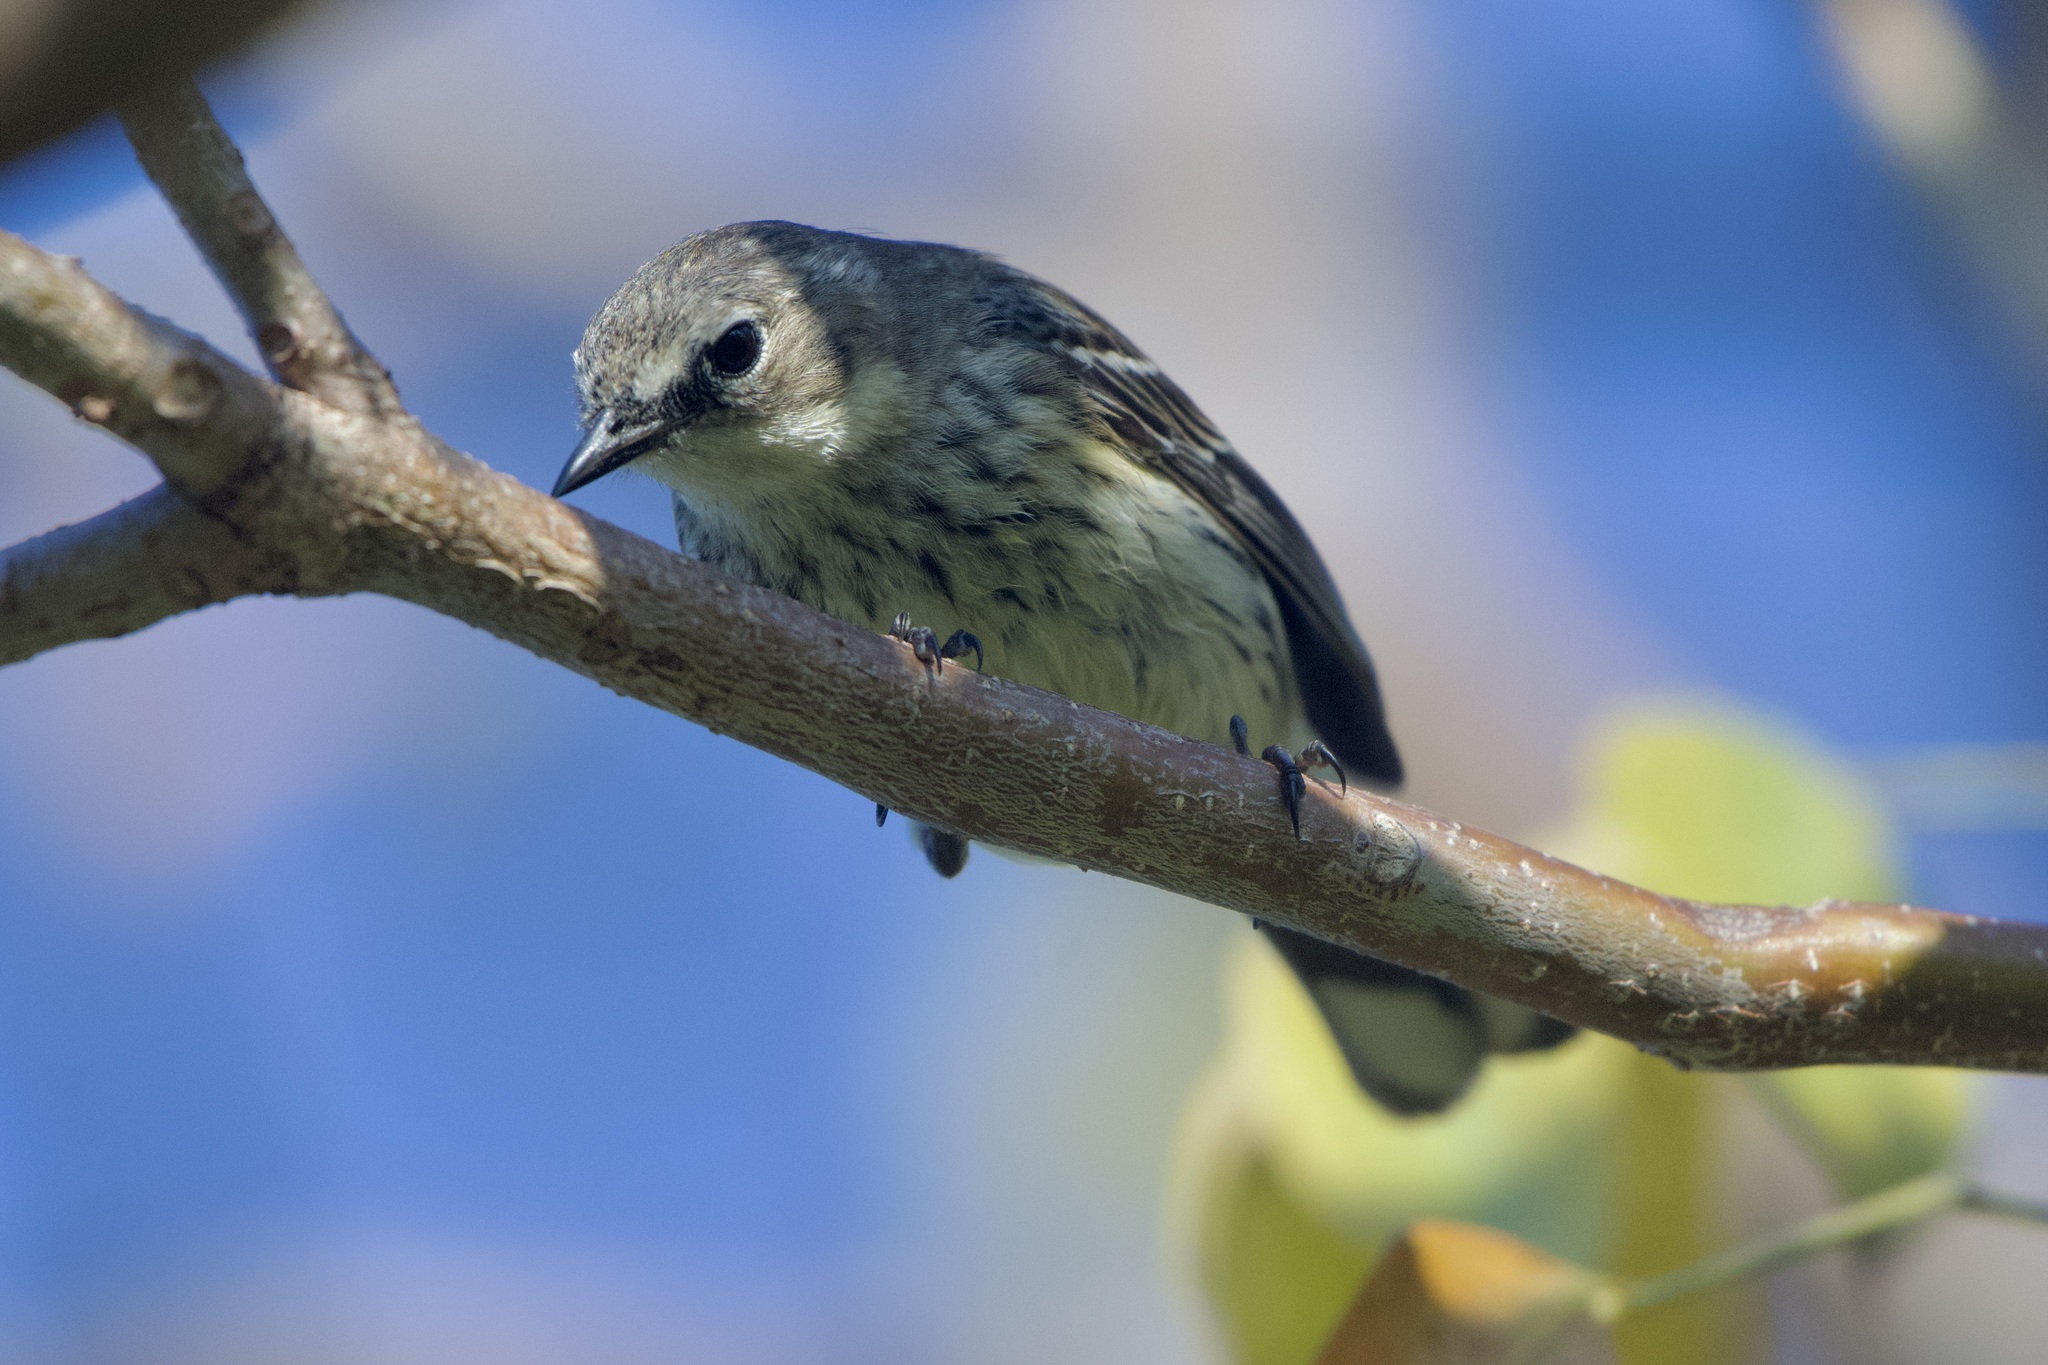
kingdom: Animalia
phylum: Chordata
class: Aves
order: Passeriformes
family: Parulidae
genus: Setophaga
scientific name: Setophaga coronata
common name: Myrtle warbler
